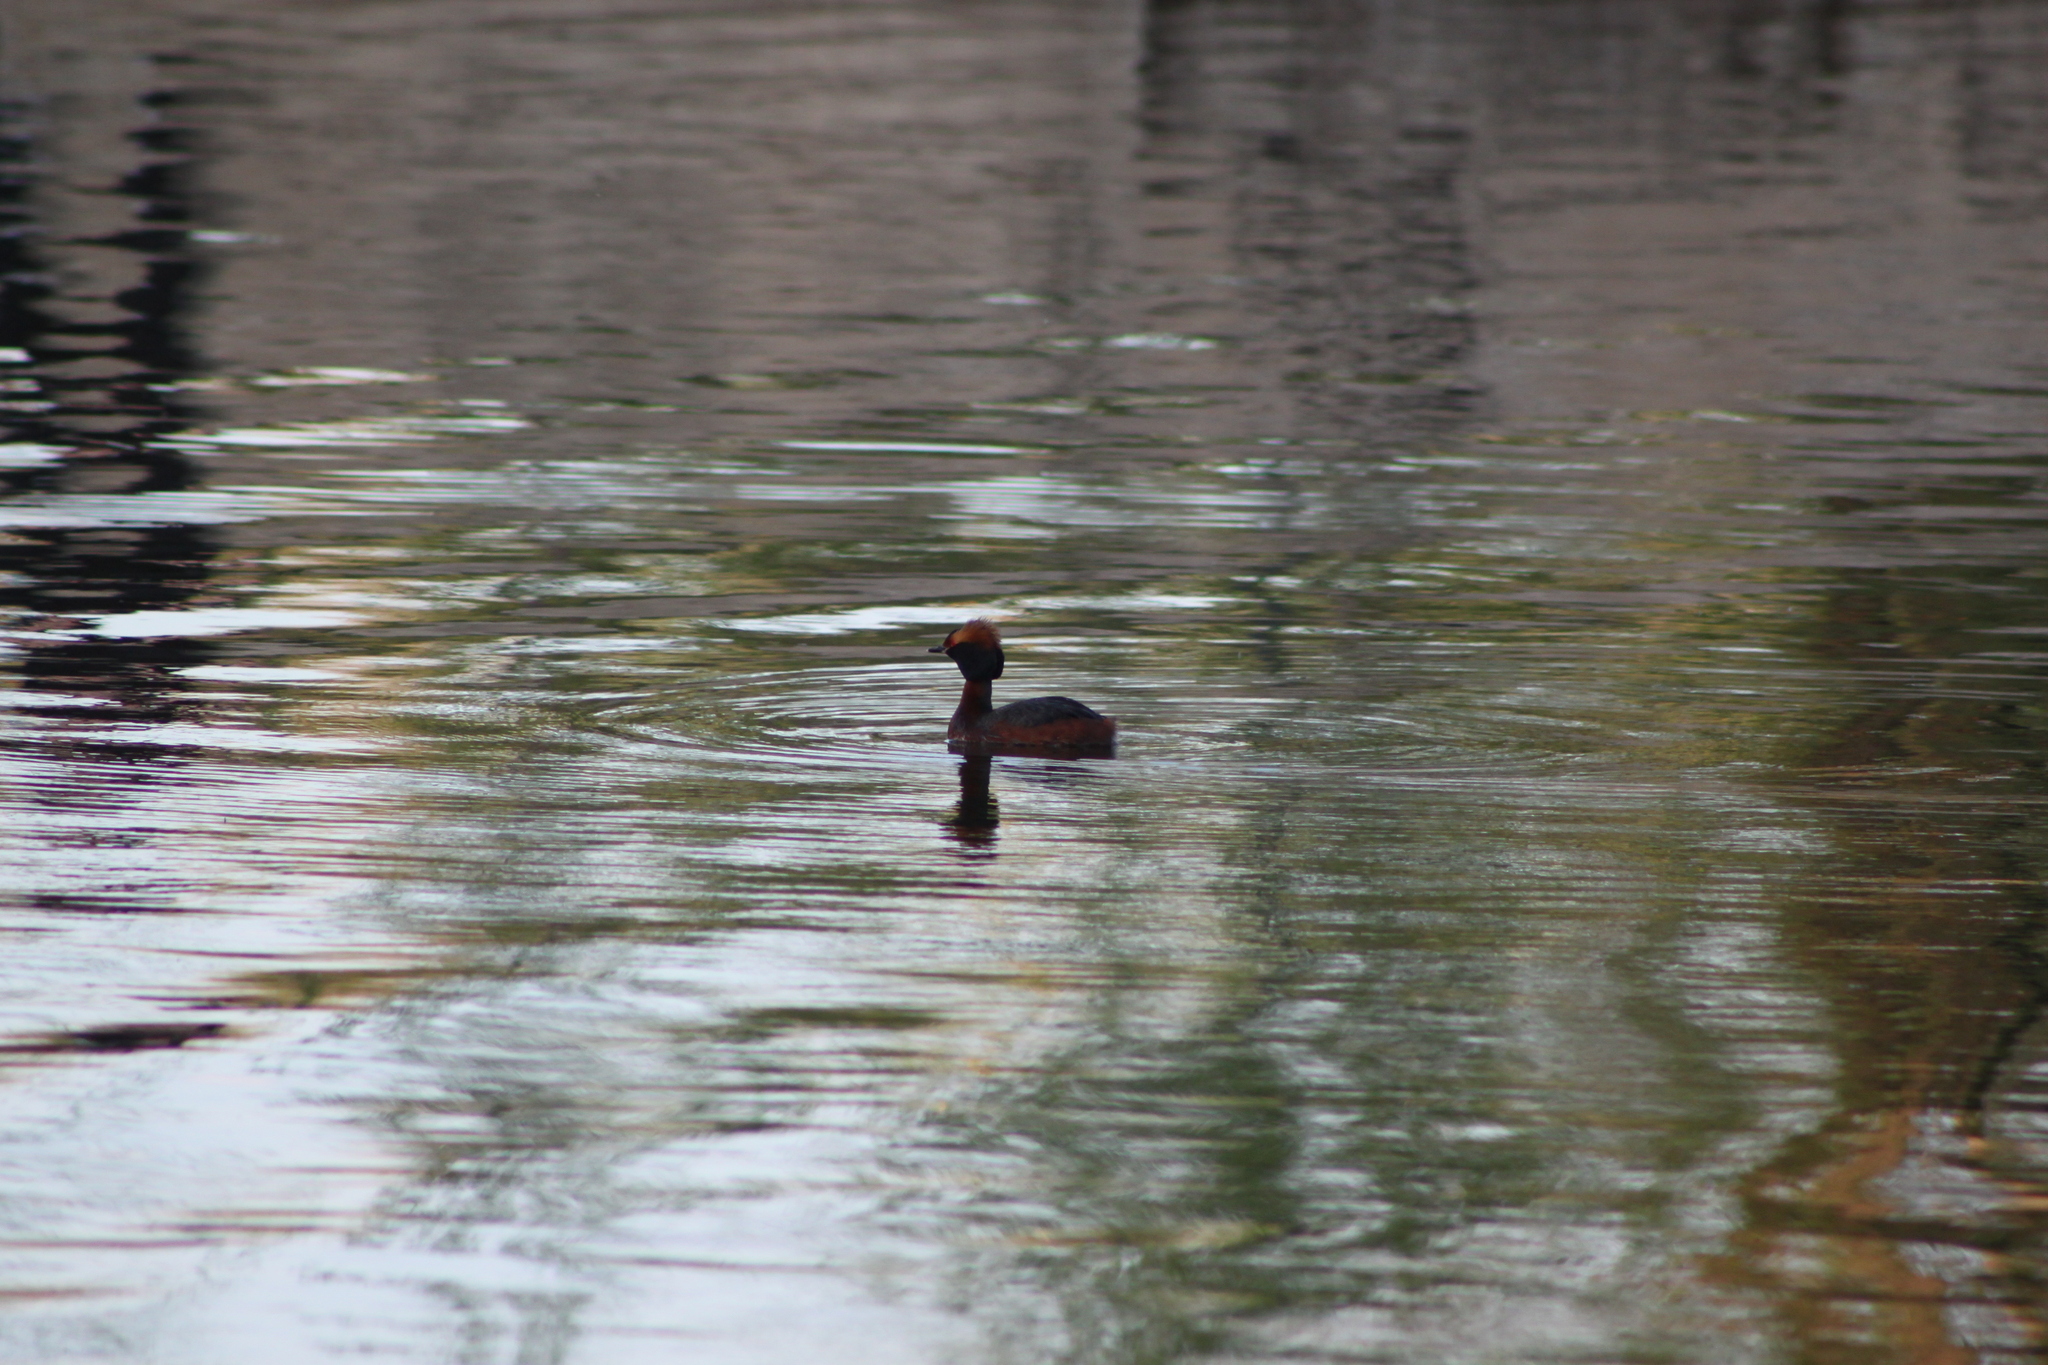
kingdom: Animalia
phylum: Chordata
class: Aves
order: Podicipediformes
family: Podicipedidae
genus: Podiceps
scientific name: Podiceps auritus
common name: Horned grebe
